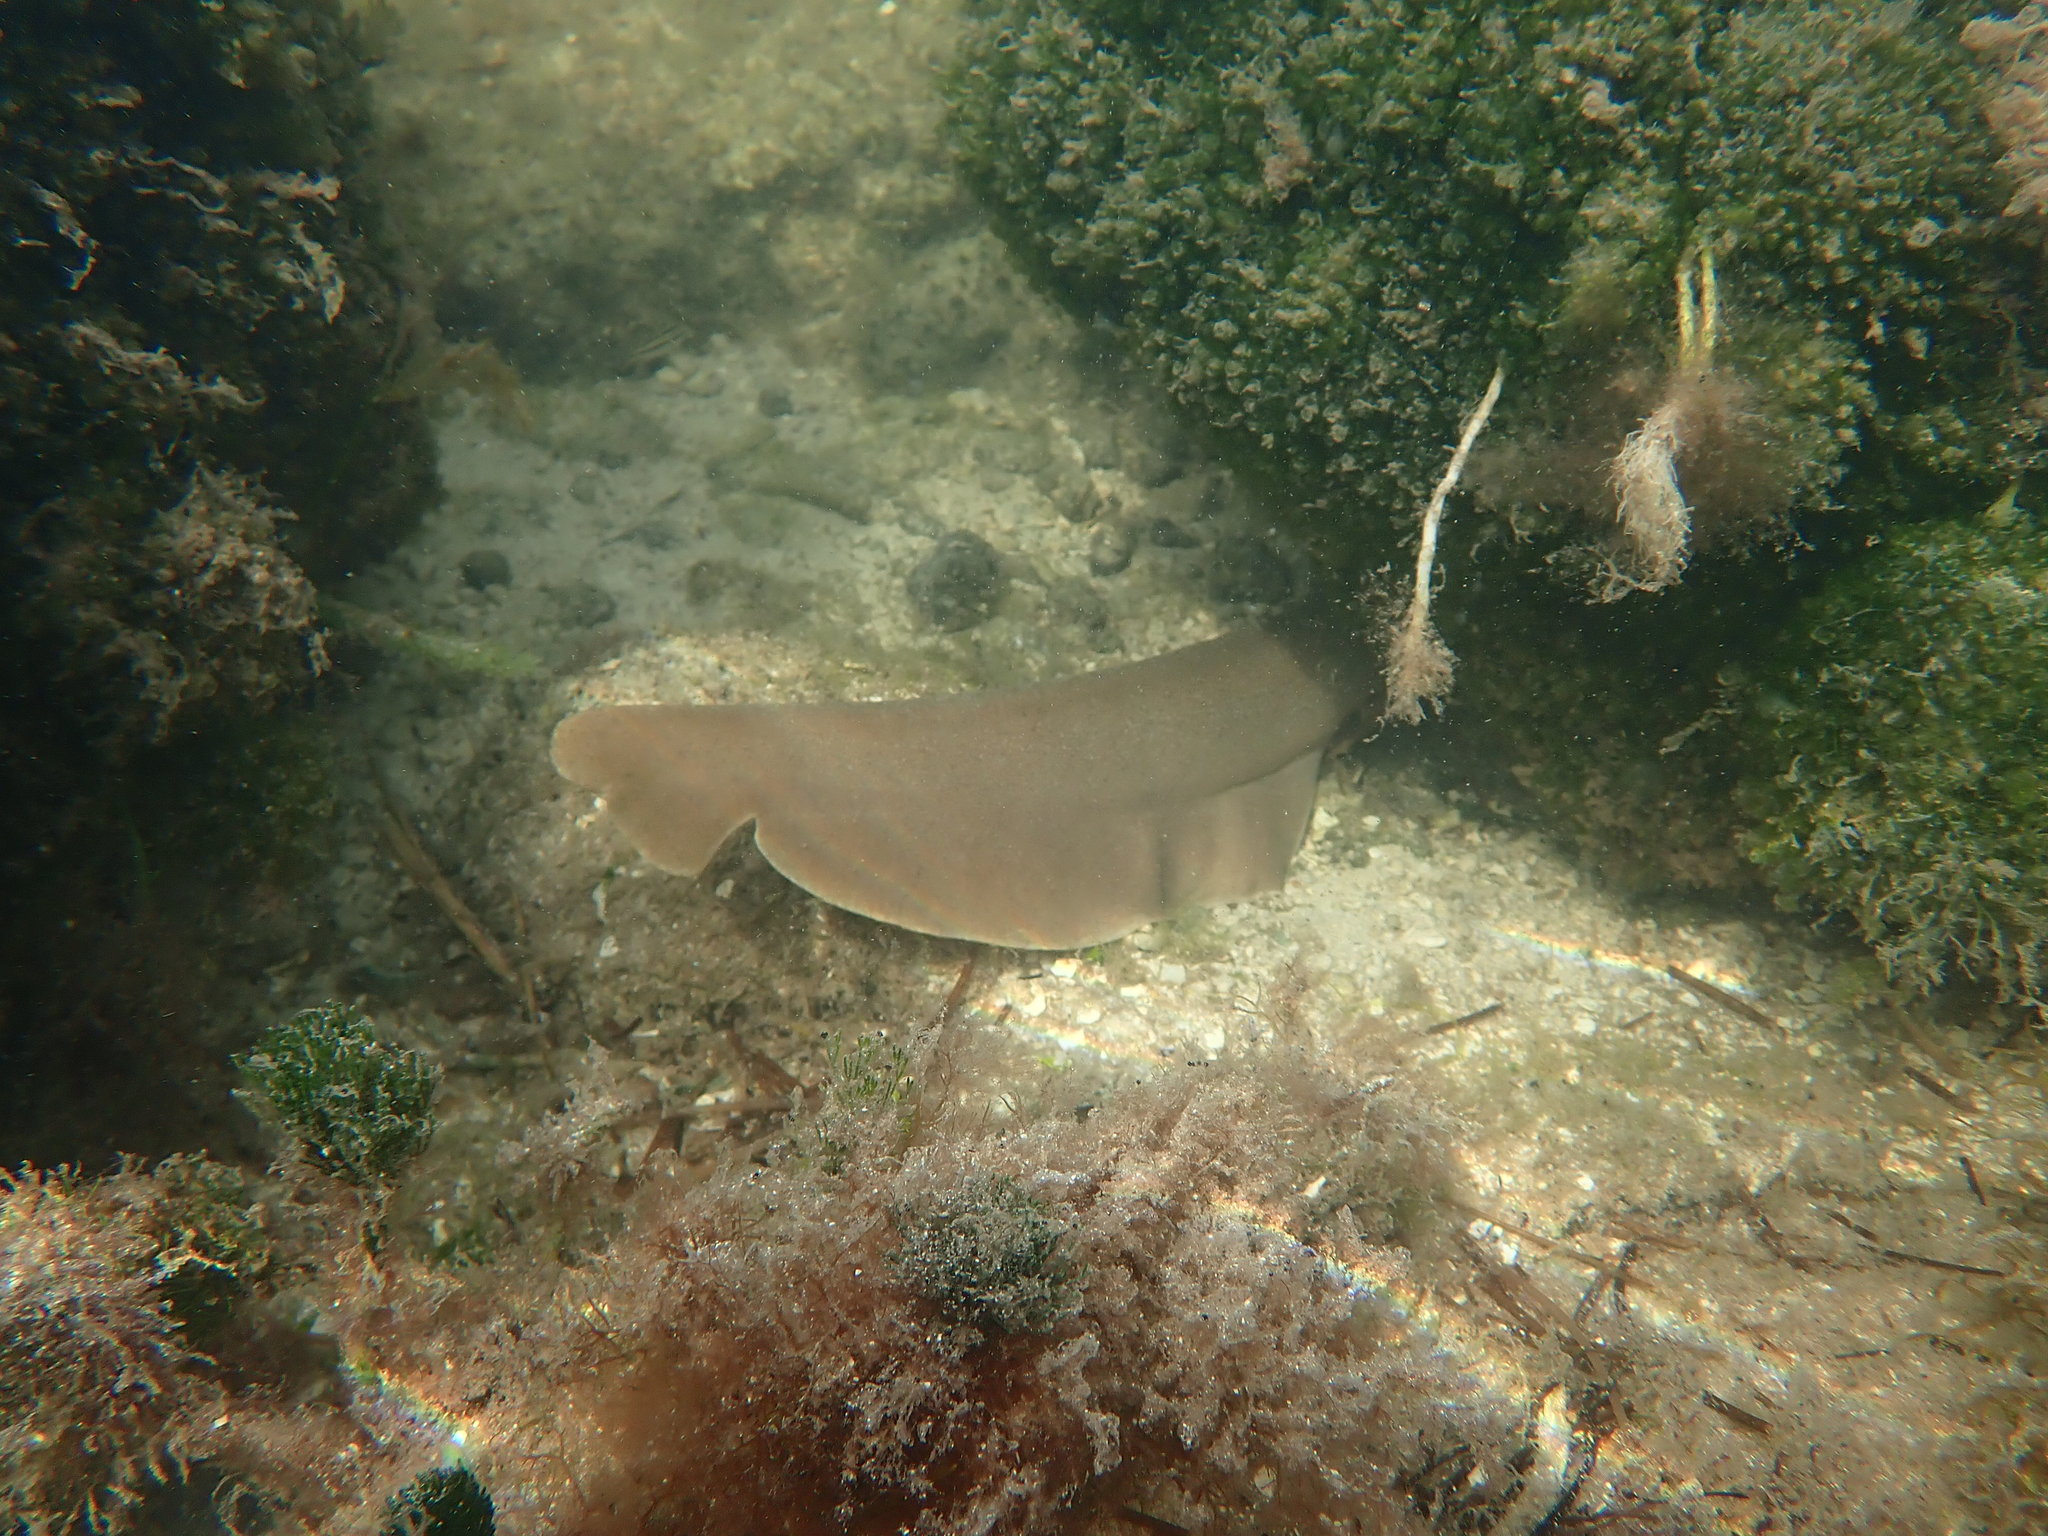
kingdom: Animalia
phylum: Chordata
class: Elasmobranchii
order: Orectolobiformes
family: Ginglymostomatidae
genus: Ginglymostoma
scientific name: Ginglymostoma cirratum
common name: Nurse shark
